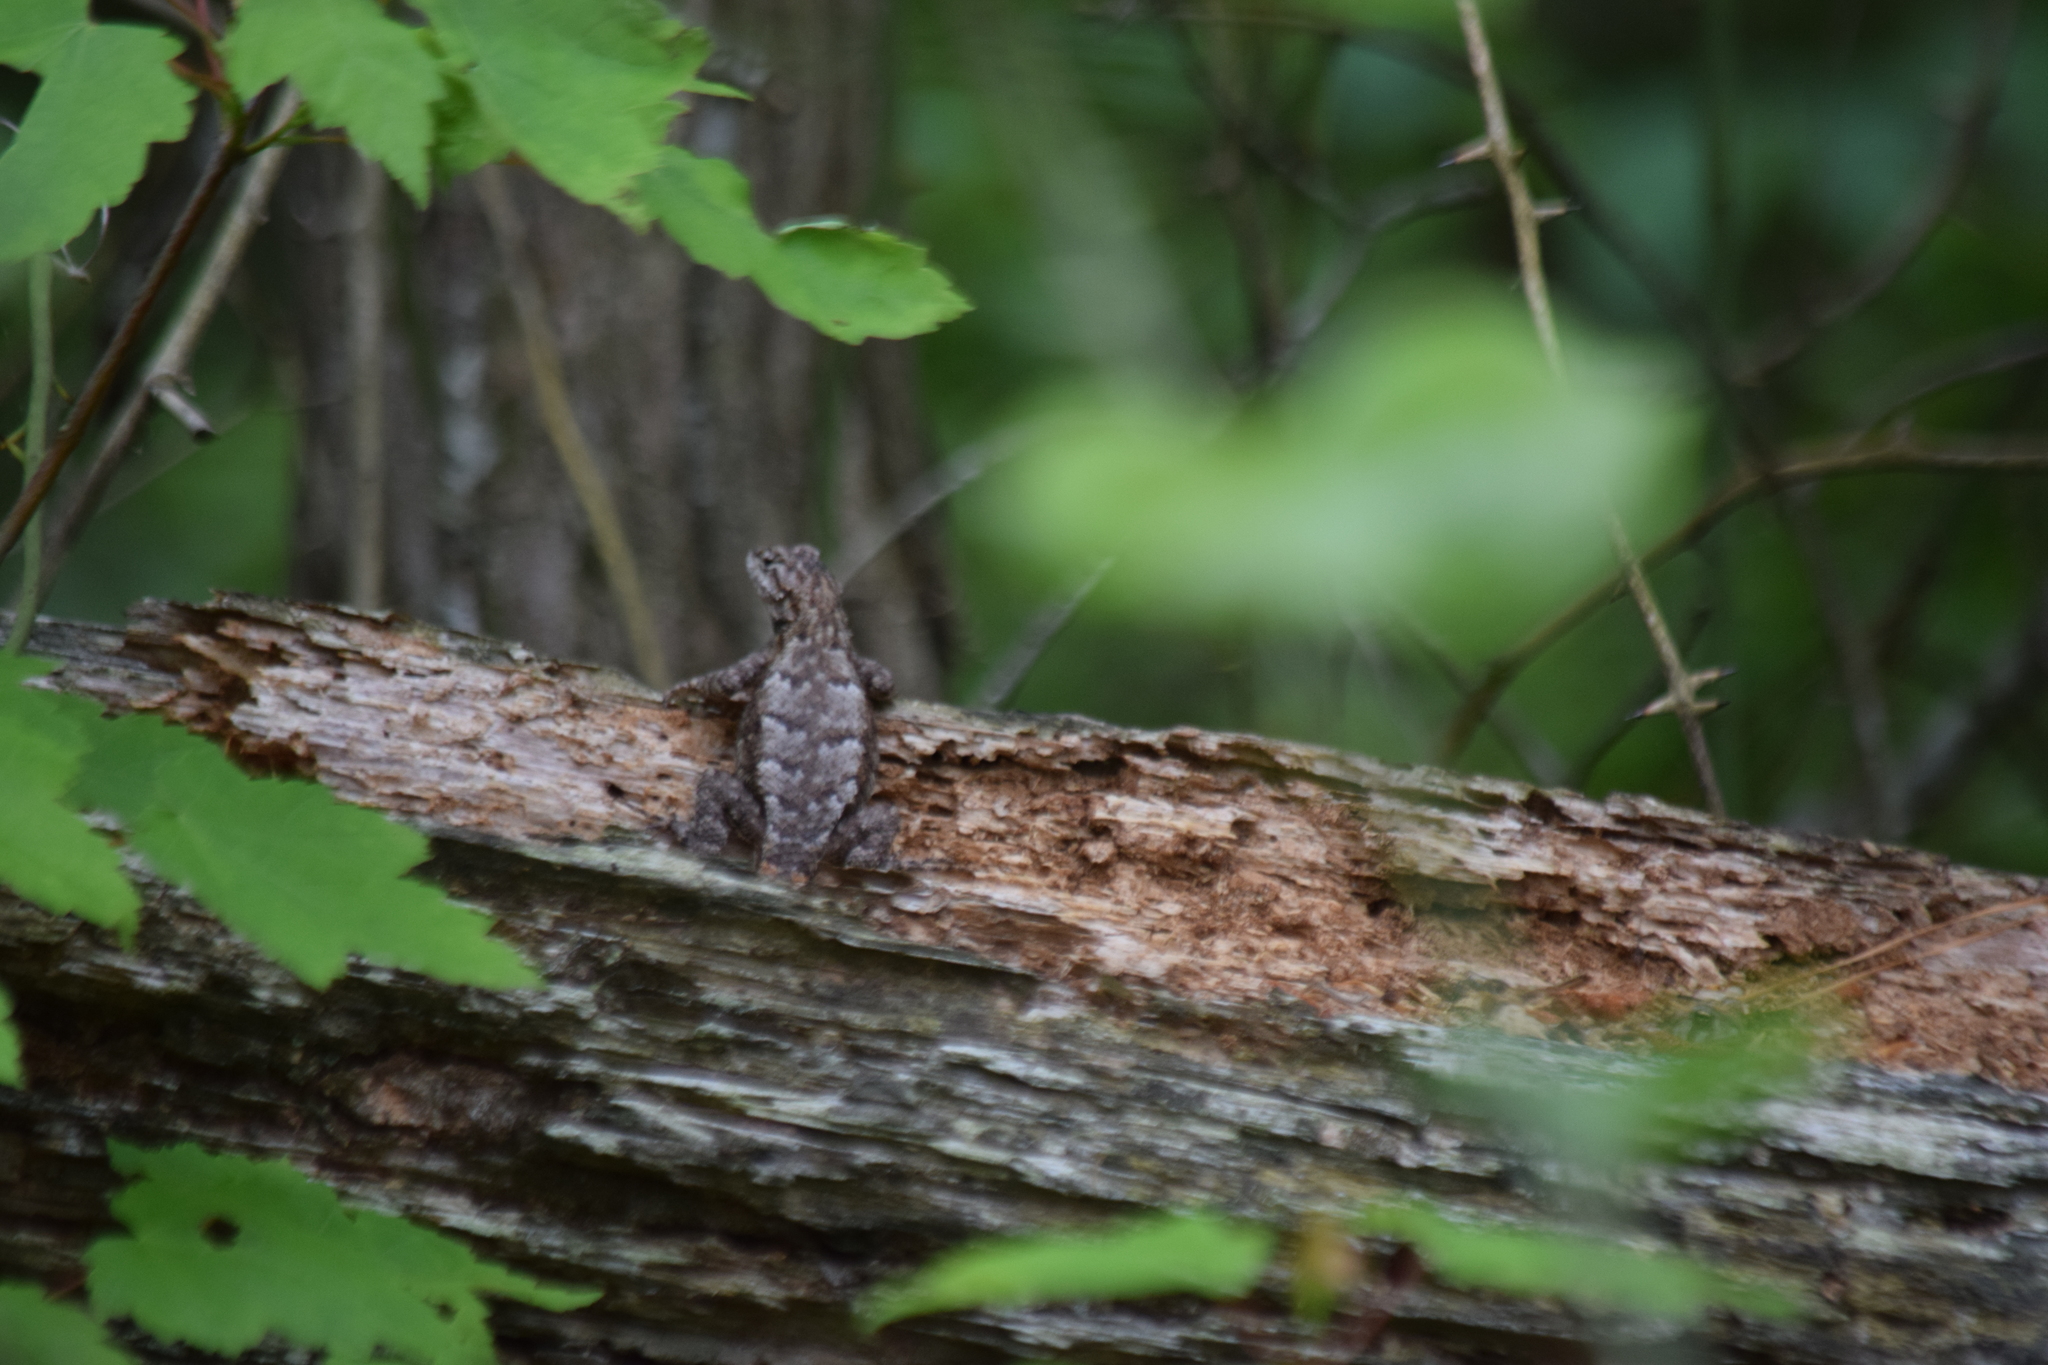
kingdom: Animalia
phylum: Chordata
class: Squamata
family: Phrynosomatidae
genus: Sceloporus
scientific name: Sceloporus undulatus
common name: Eastern fence lizard
